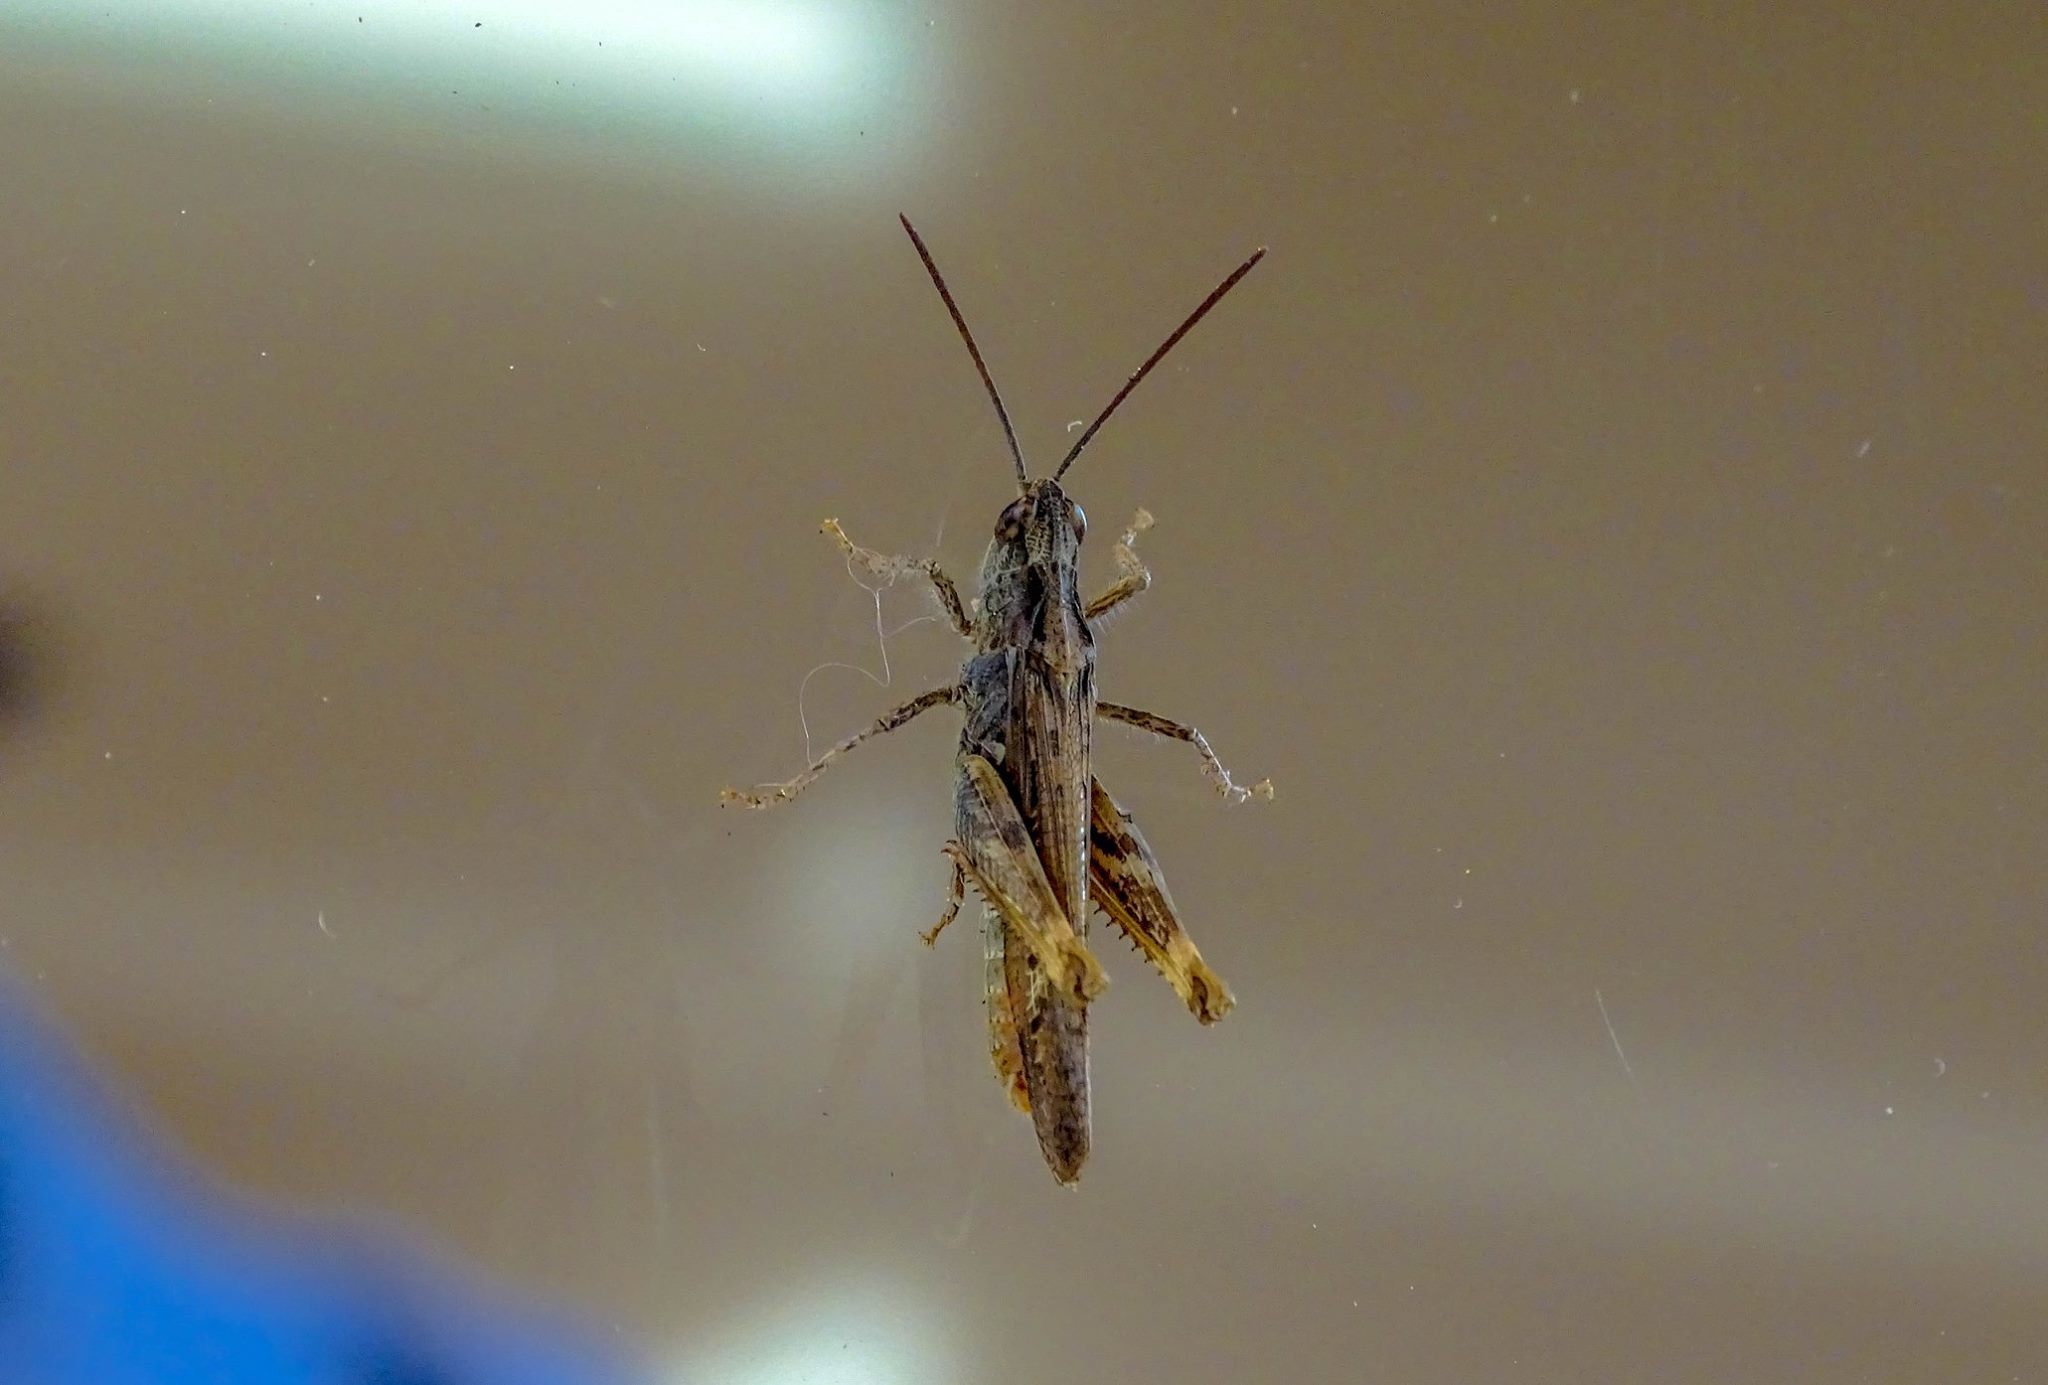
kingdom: Animalia
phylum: Arthropoda
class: Insecta
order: Orthoptera
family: Acrididae
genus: Chorthippus
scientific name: Chorthippus brunneus
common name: Field grasshopper
